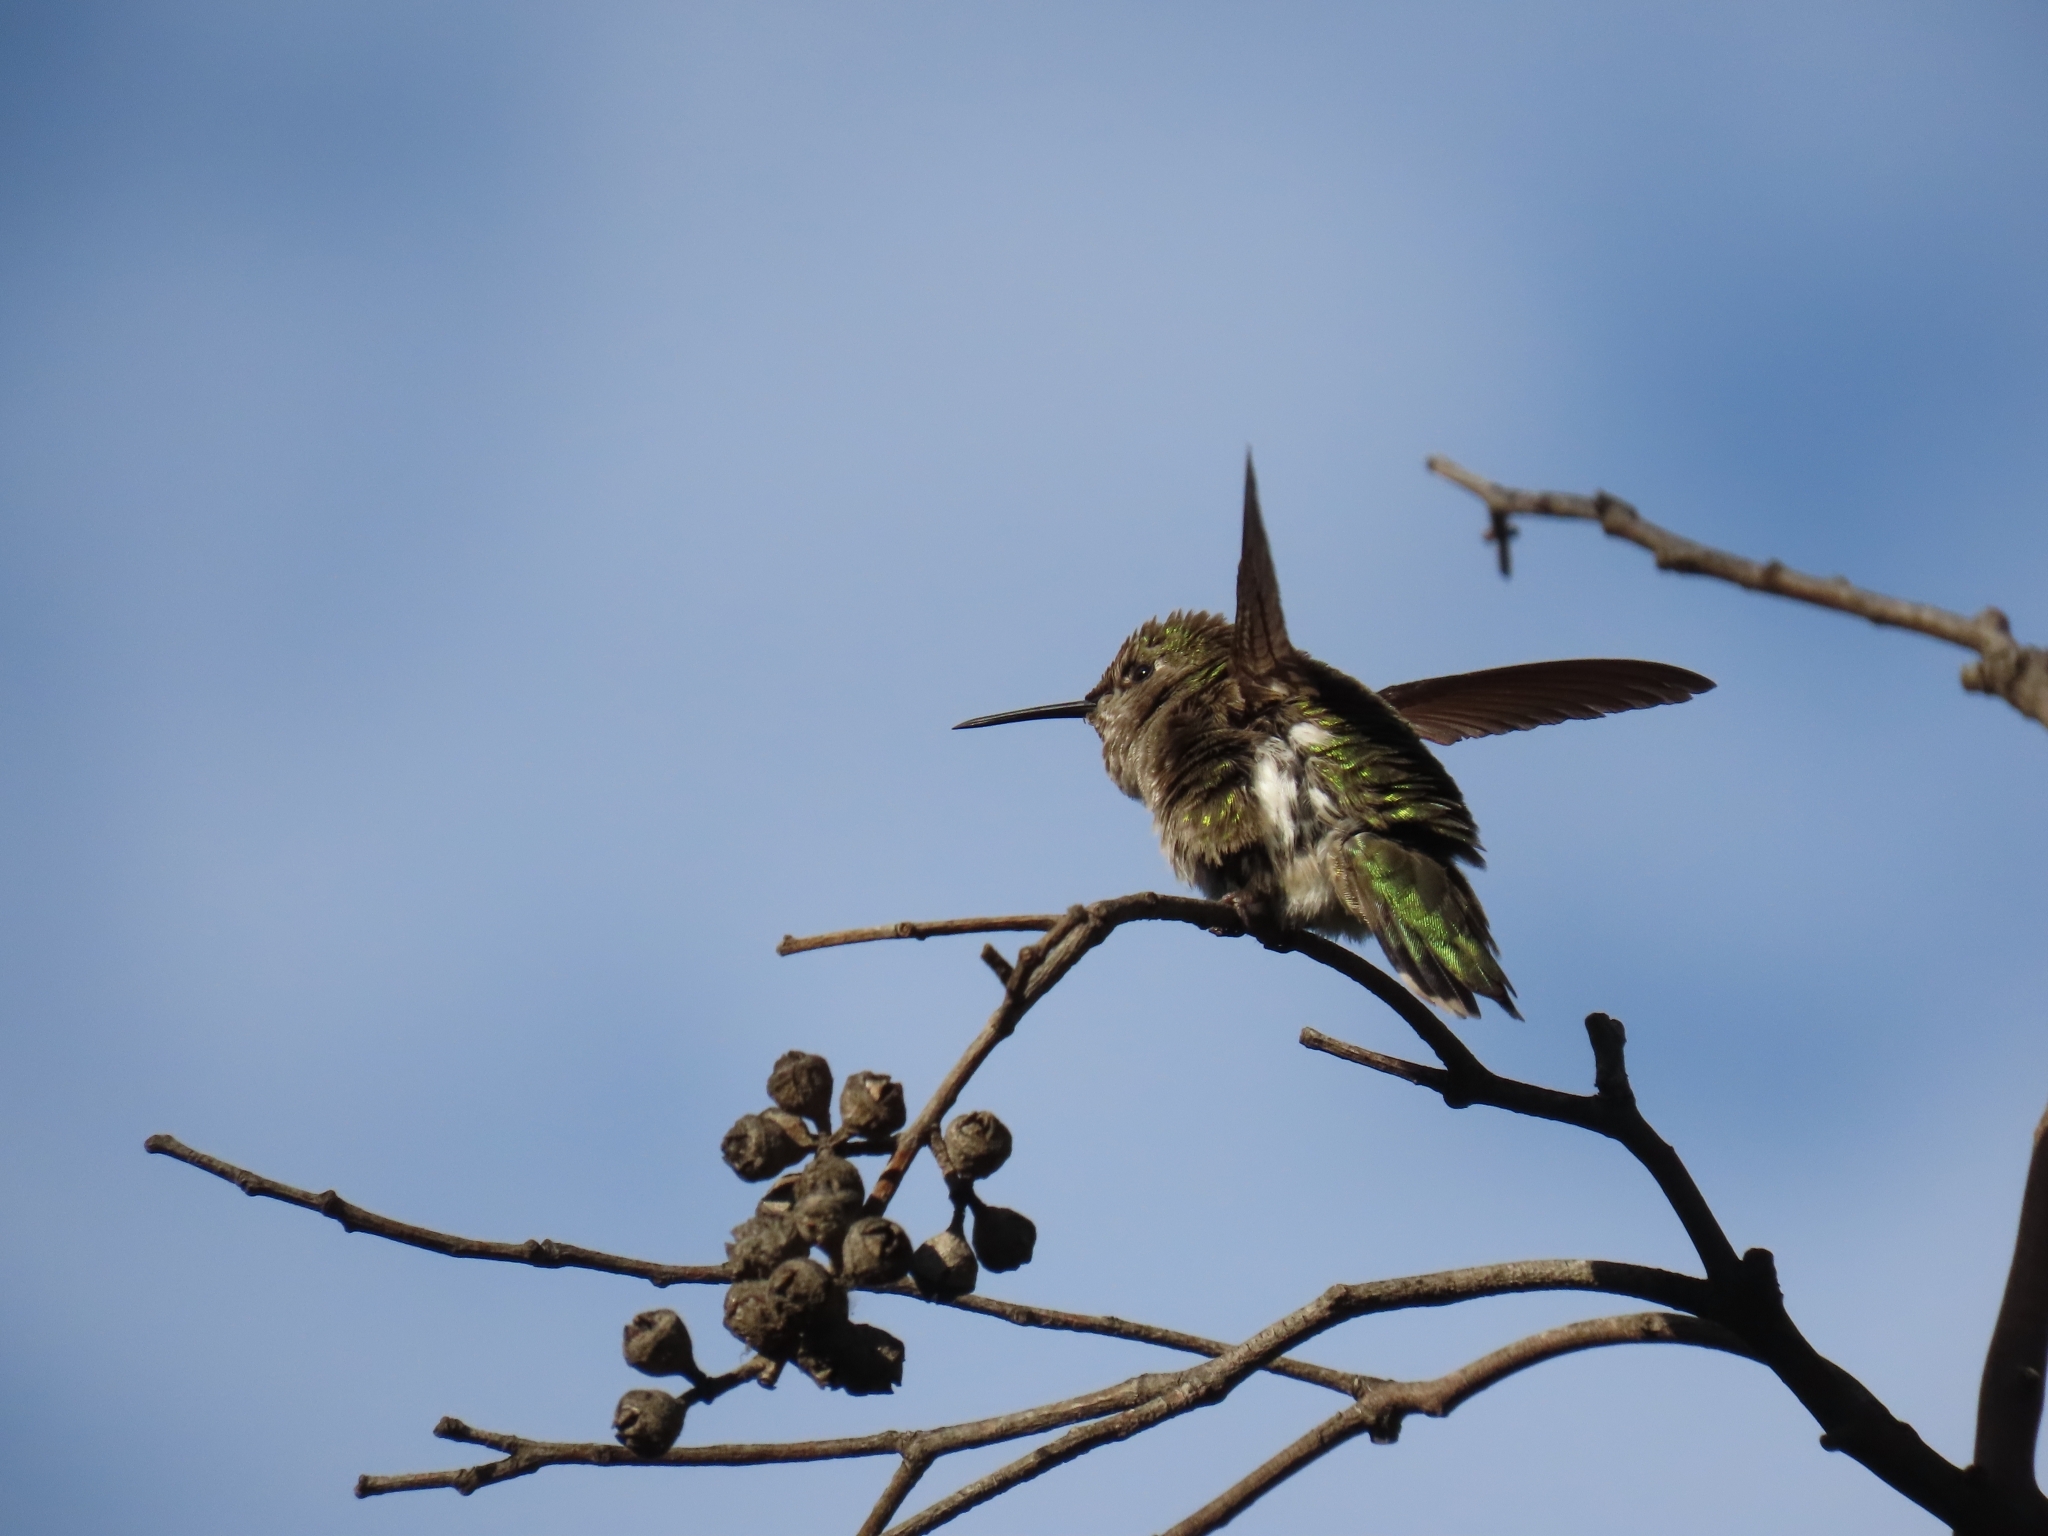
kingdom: Animalia
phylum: Chordata
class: Aves
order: Apodiformes
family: Trochilidae
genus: Calypte
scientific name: Calypte anna
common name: Anna's hummingbird
